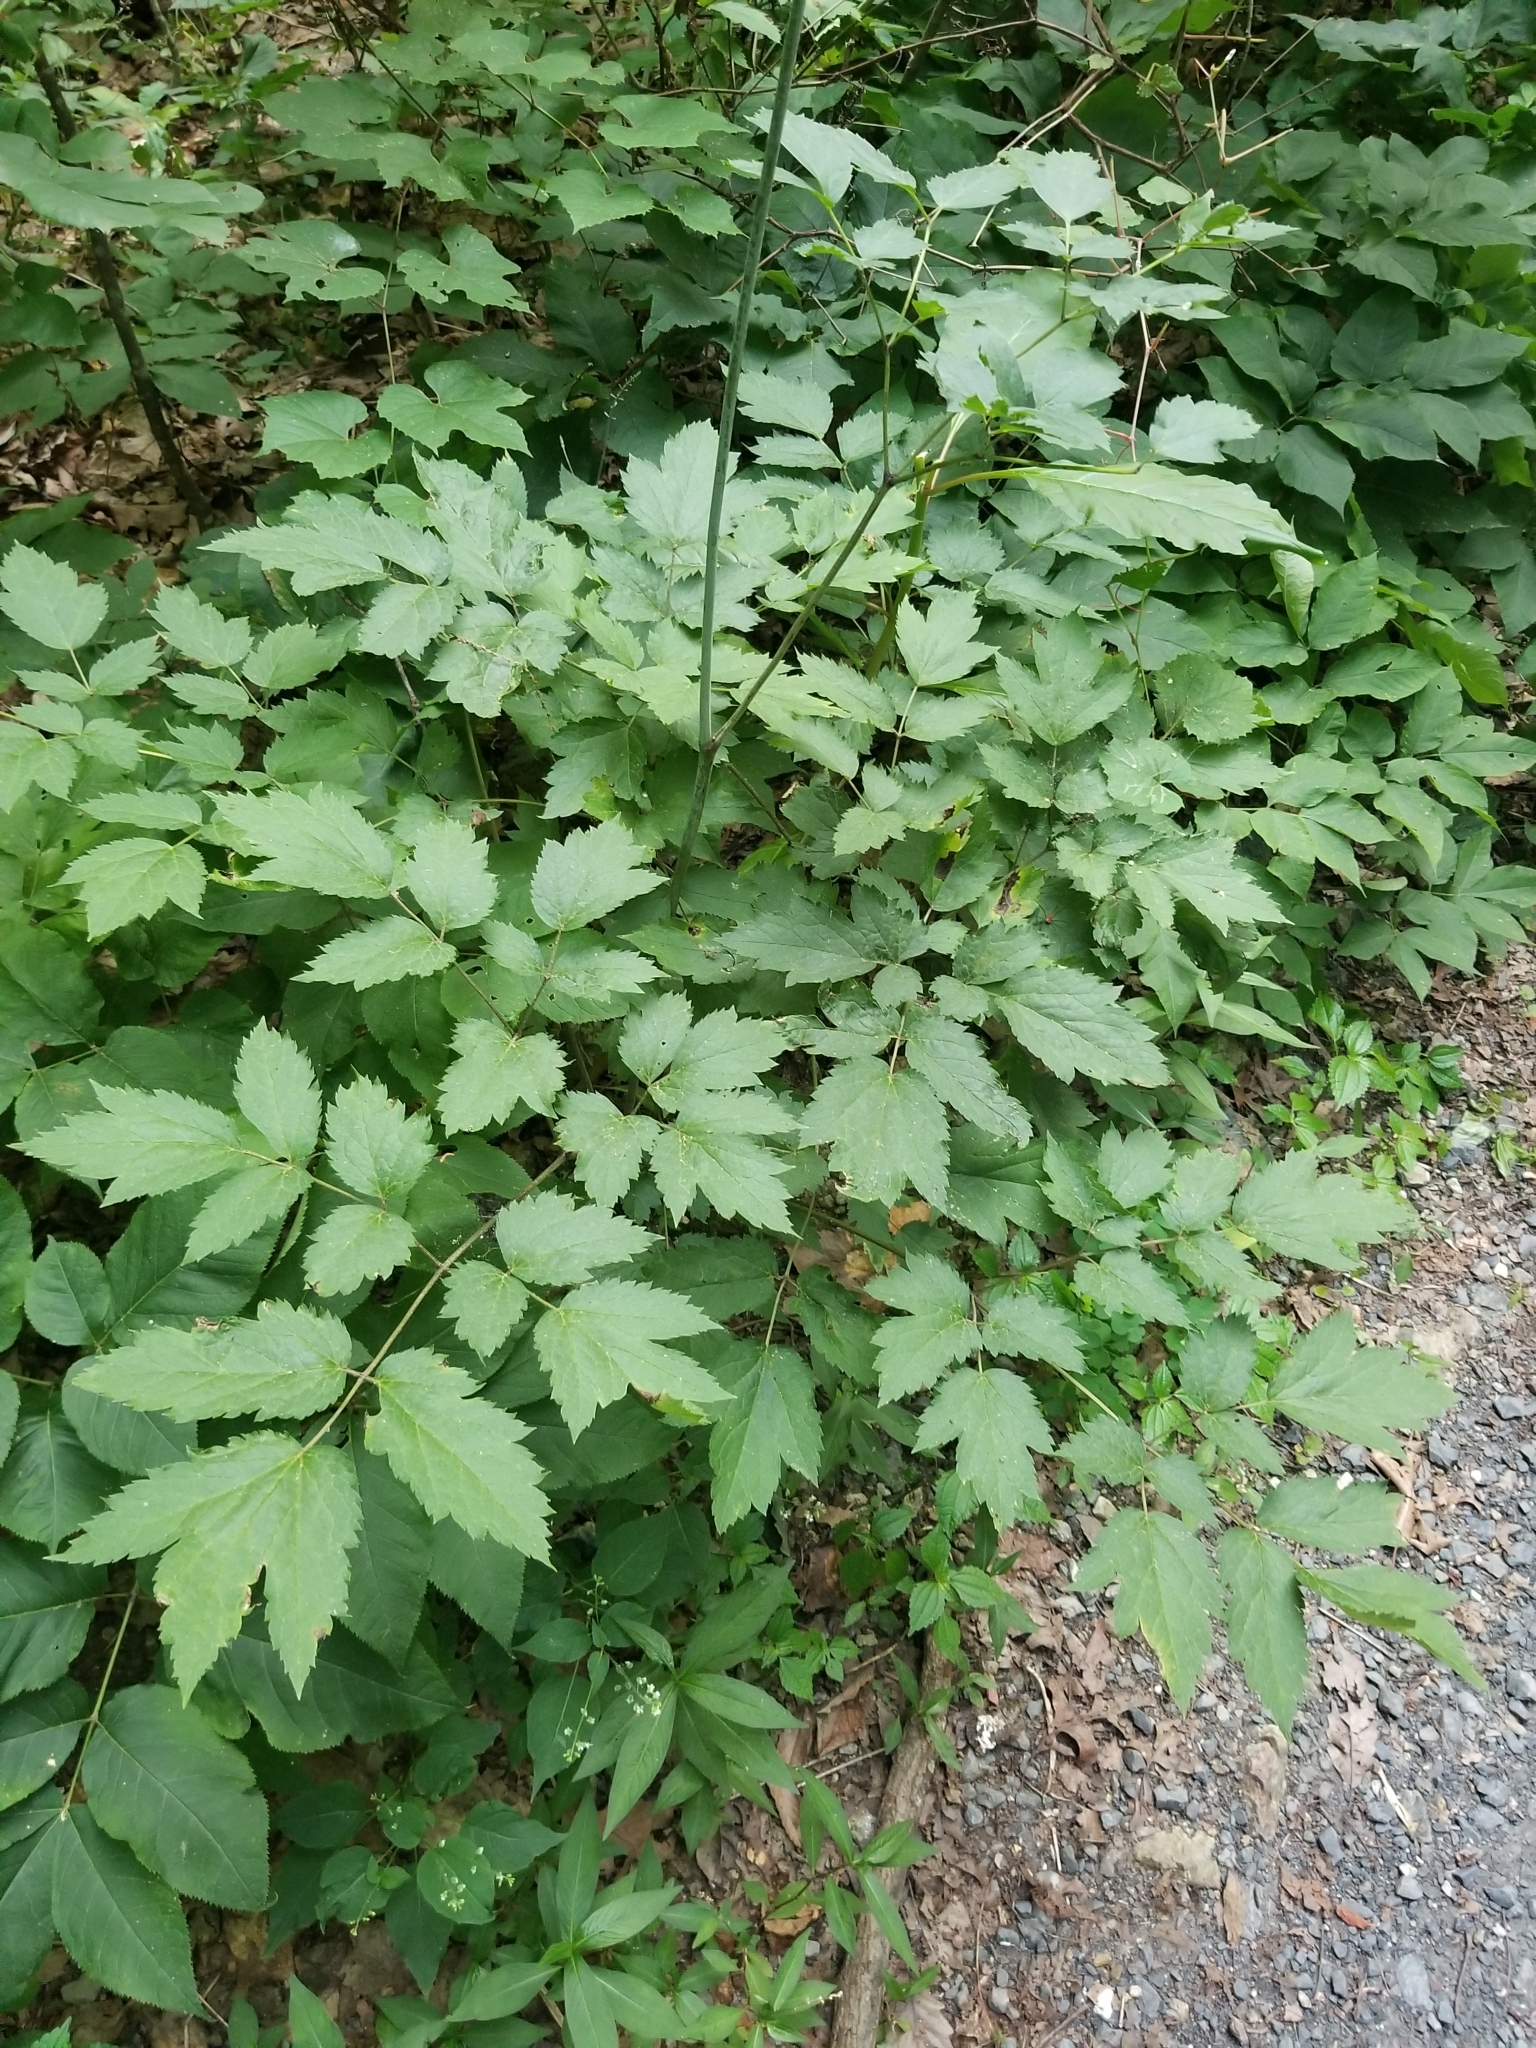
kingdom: Plantae
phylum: Tracheophyta
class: Magnoliopsida
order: Ranunculales
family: Ranunculaceae
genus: Actaea
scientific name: Actaea racemosa
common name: Black cohosh
